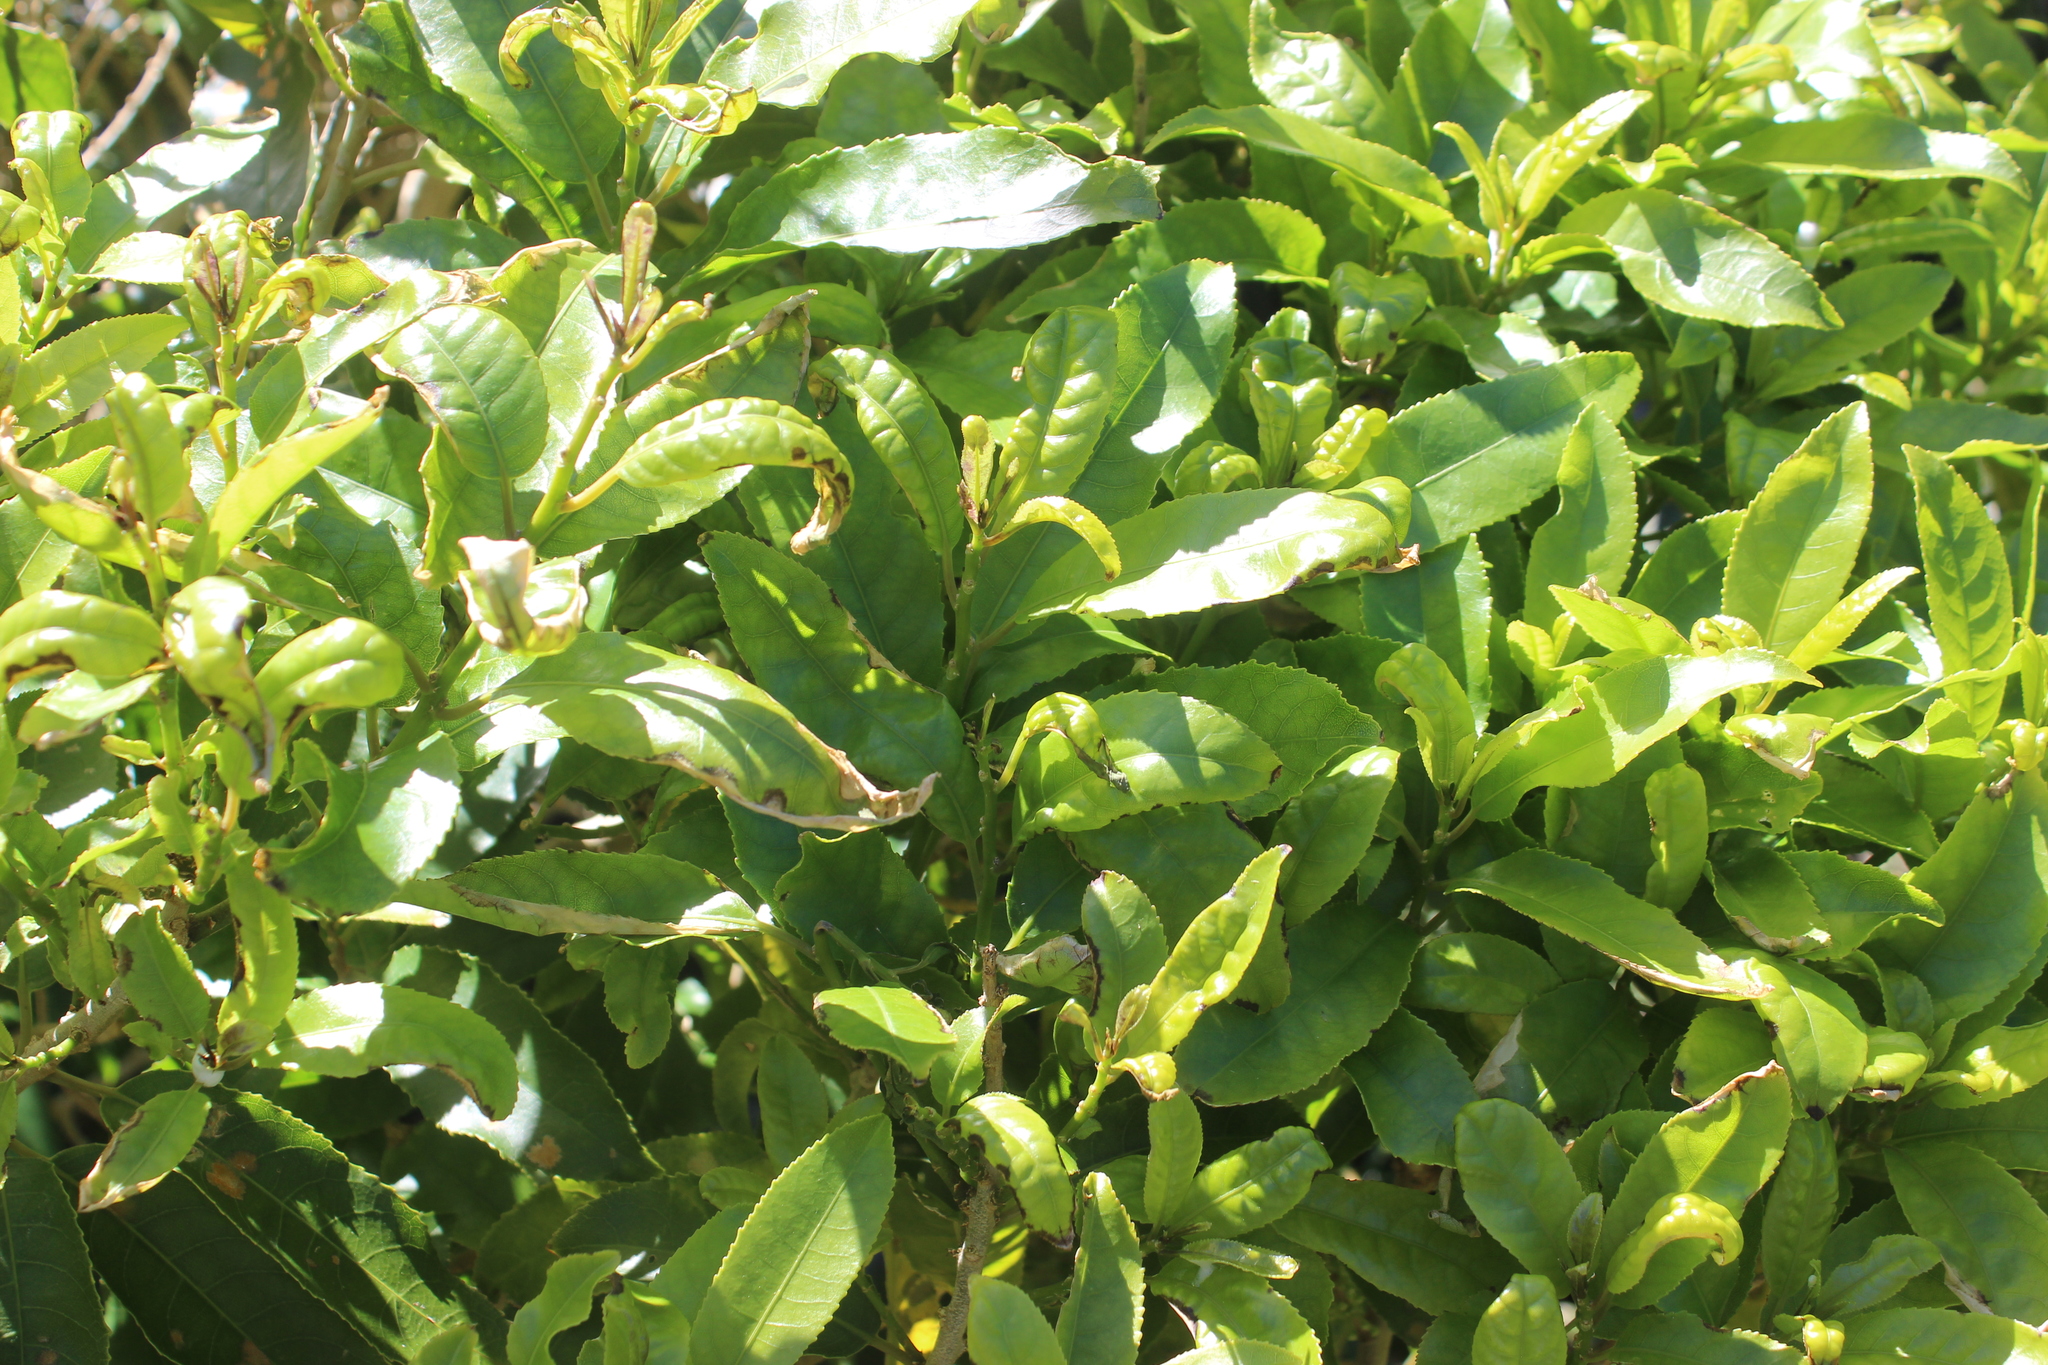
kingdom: Plantae
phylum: Tracheophyta
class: Magnoliopsida
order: Malpighiales
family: Violaceae
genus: Melicytus
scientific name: Melicytus ramiflorus
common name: Mahoe
